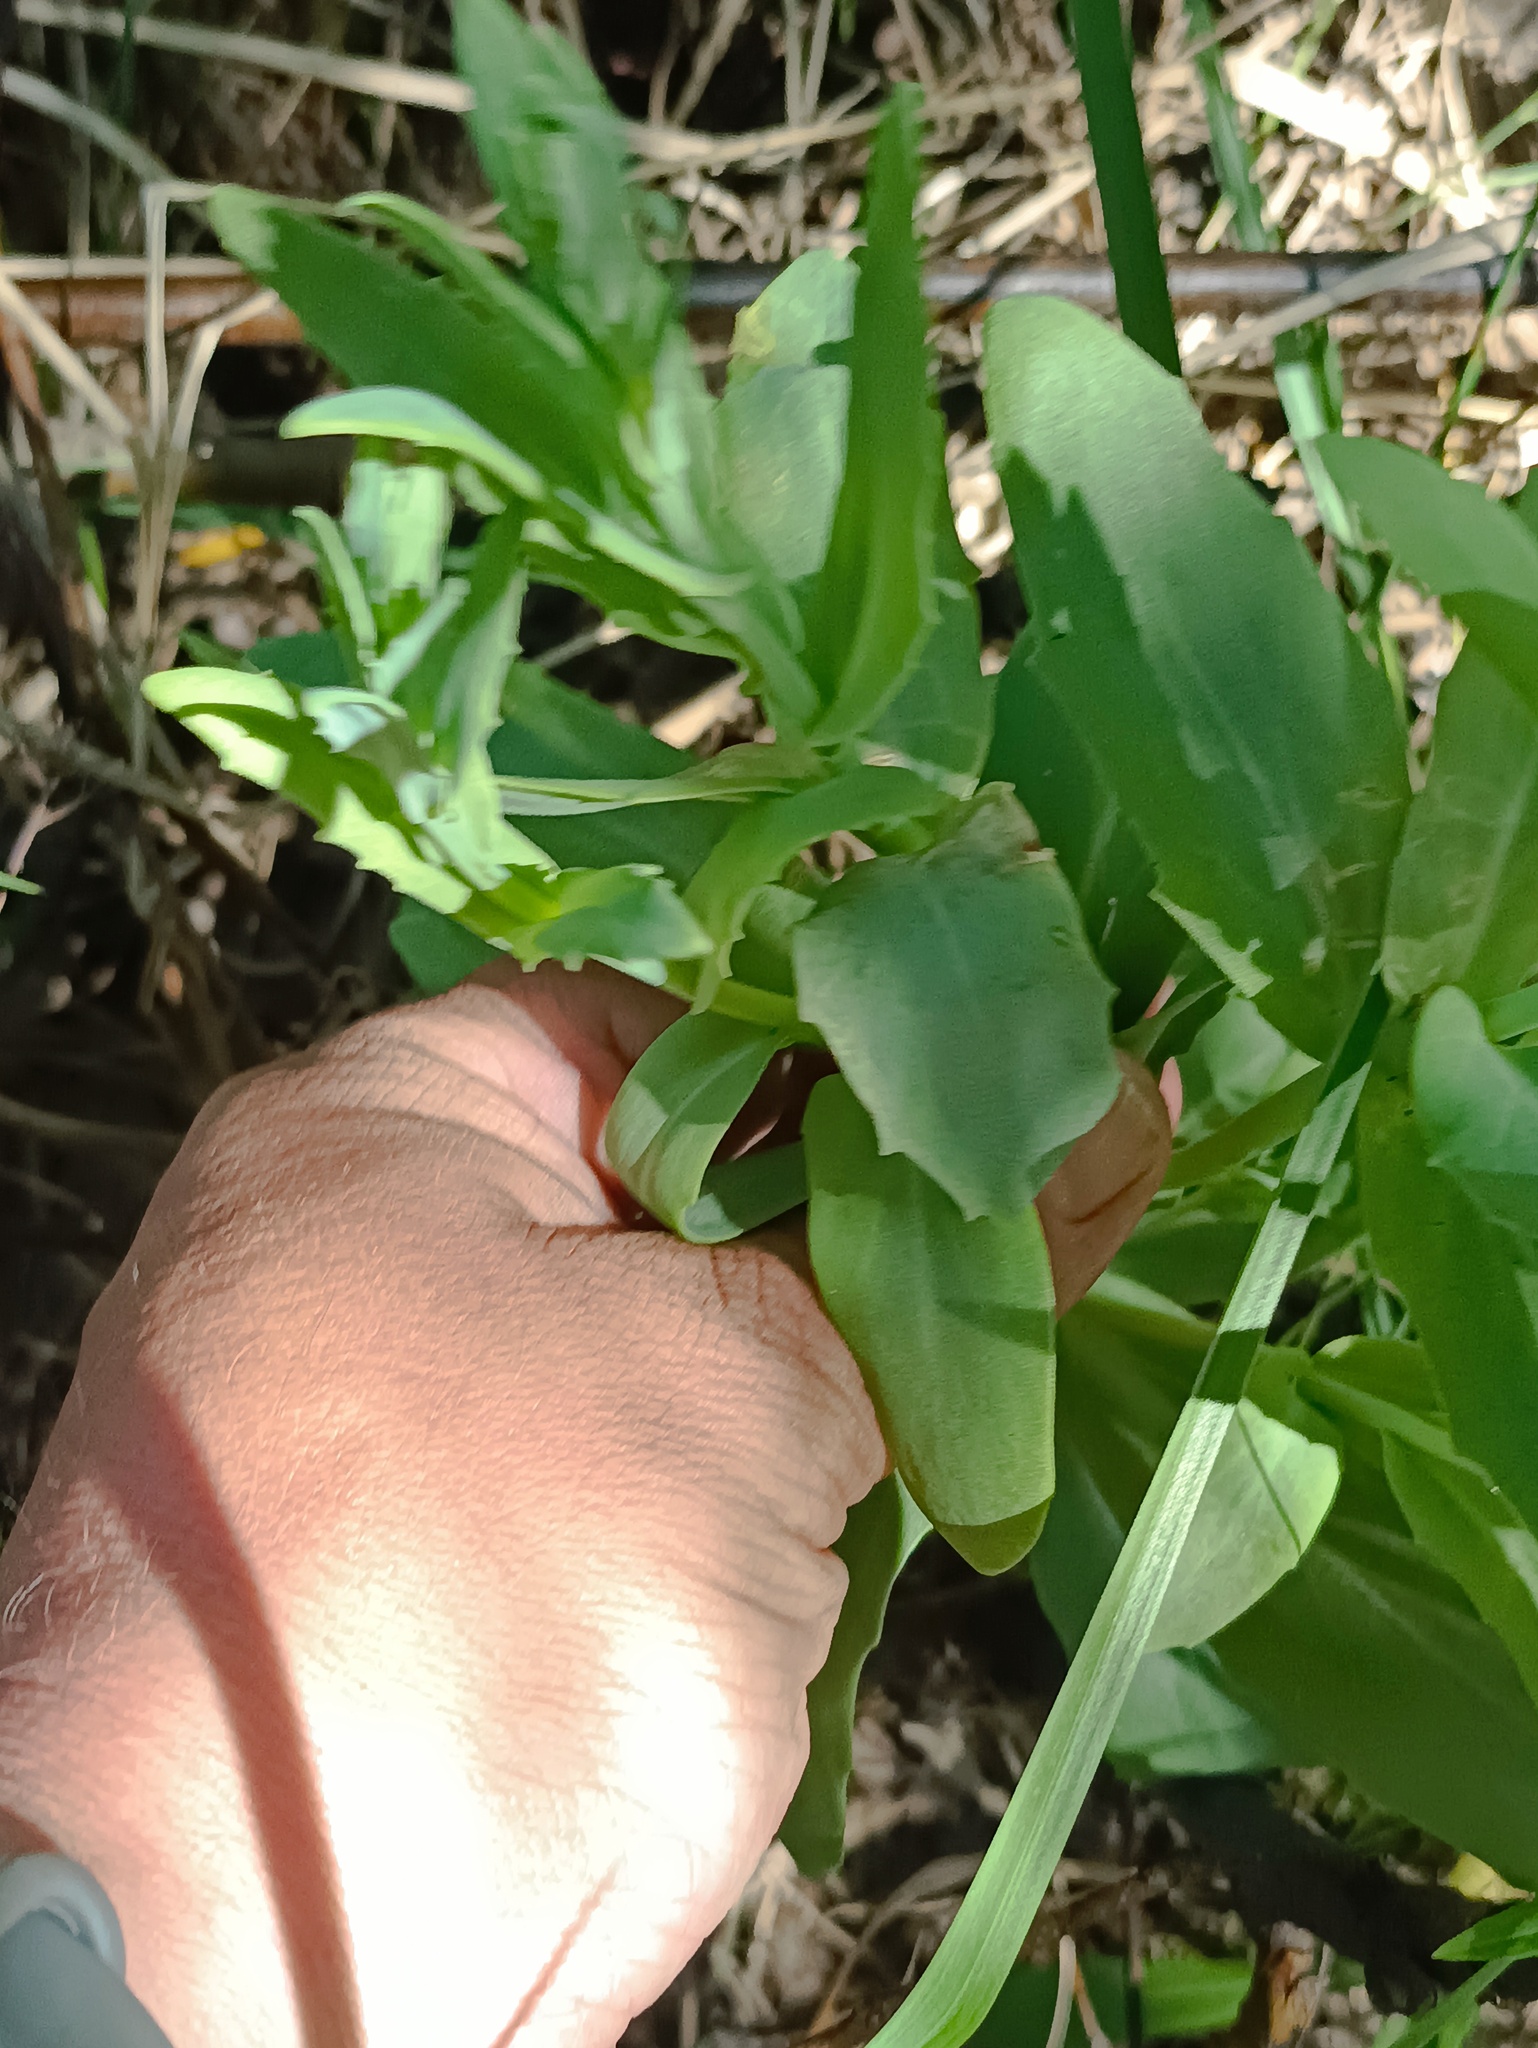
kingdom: Plantae
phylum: Tracheophyta
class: Magnoliopsida
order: Saxifragales
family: Crassulaceae
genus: Hylotelephium
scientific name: Hylotelephium telephium
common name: Live-forever
